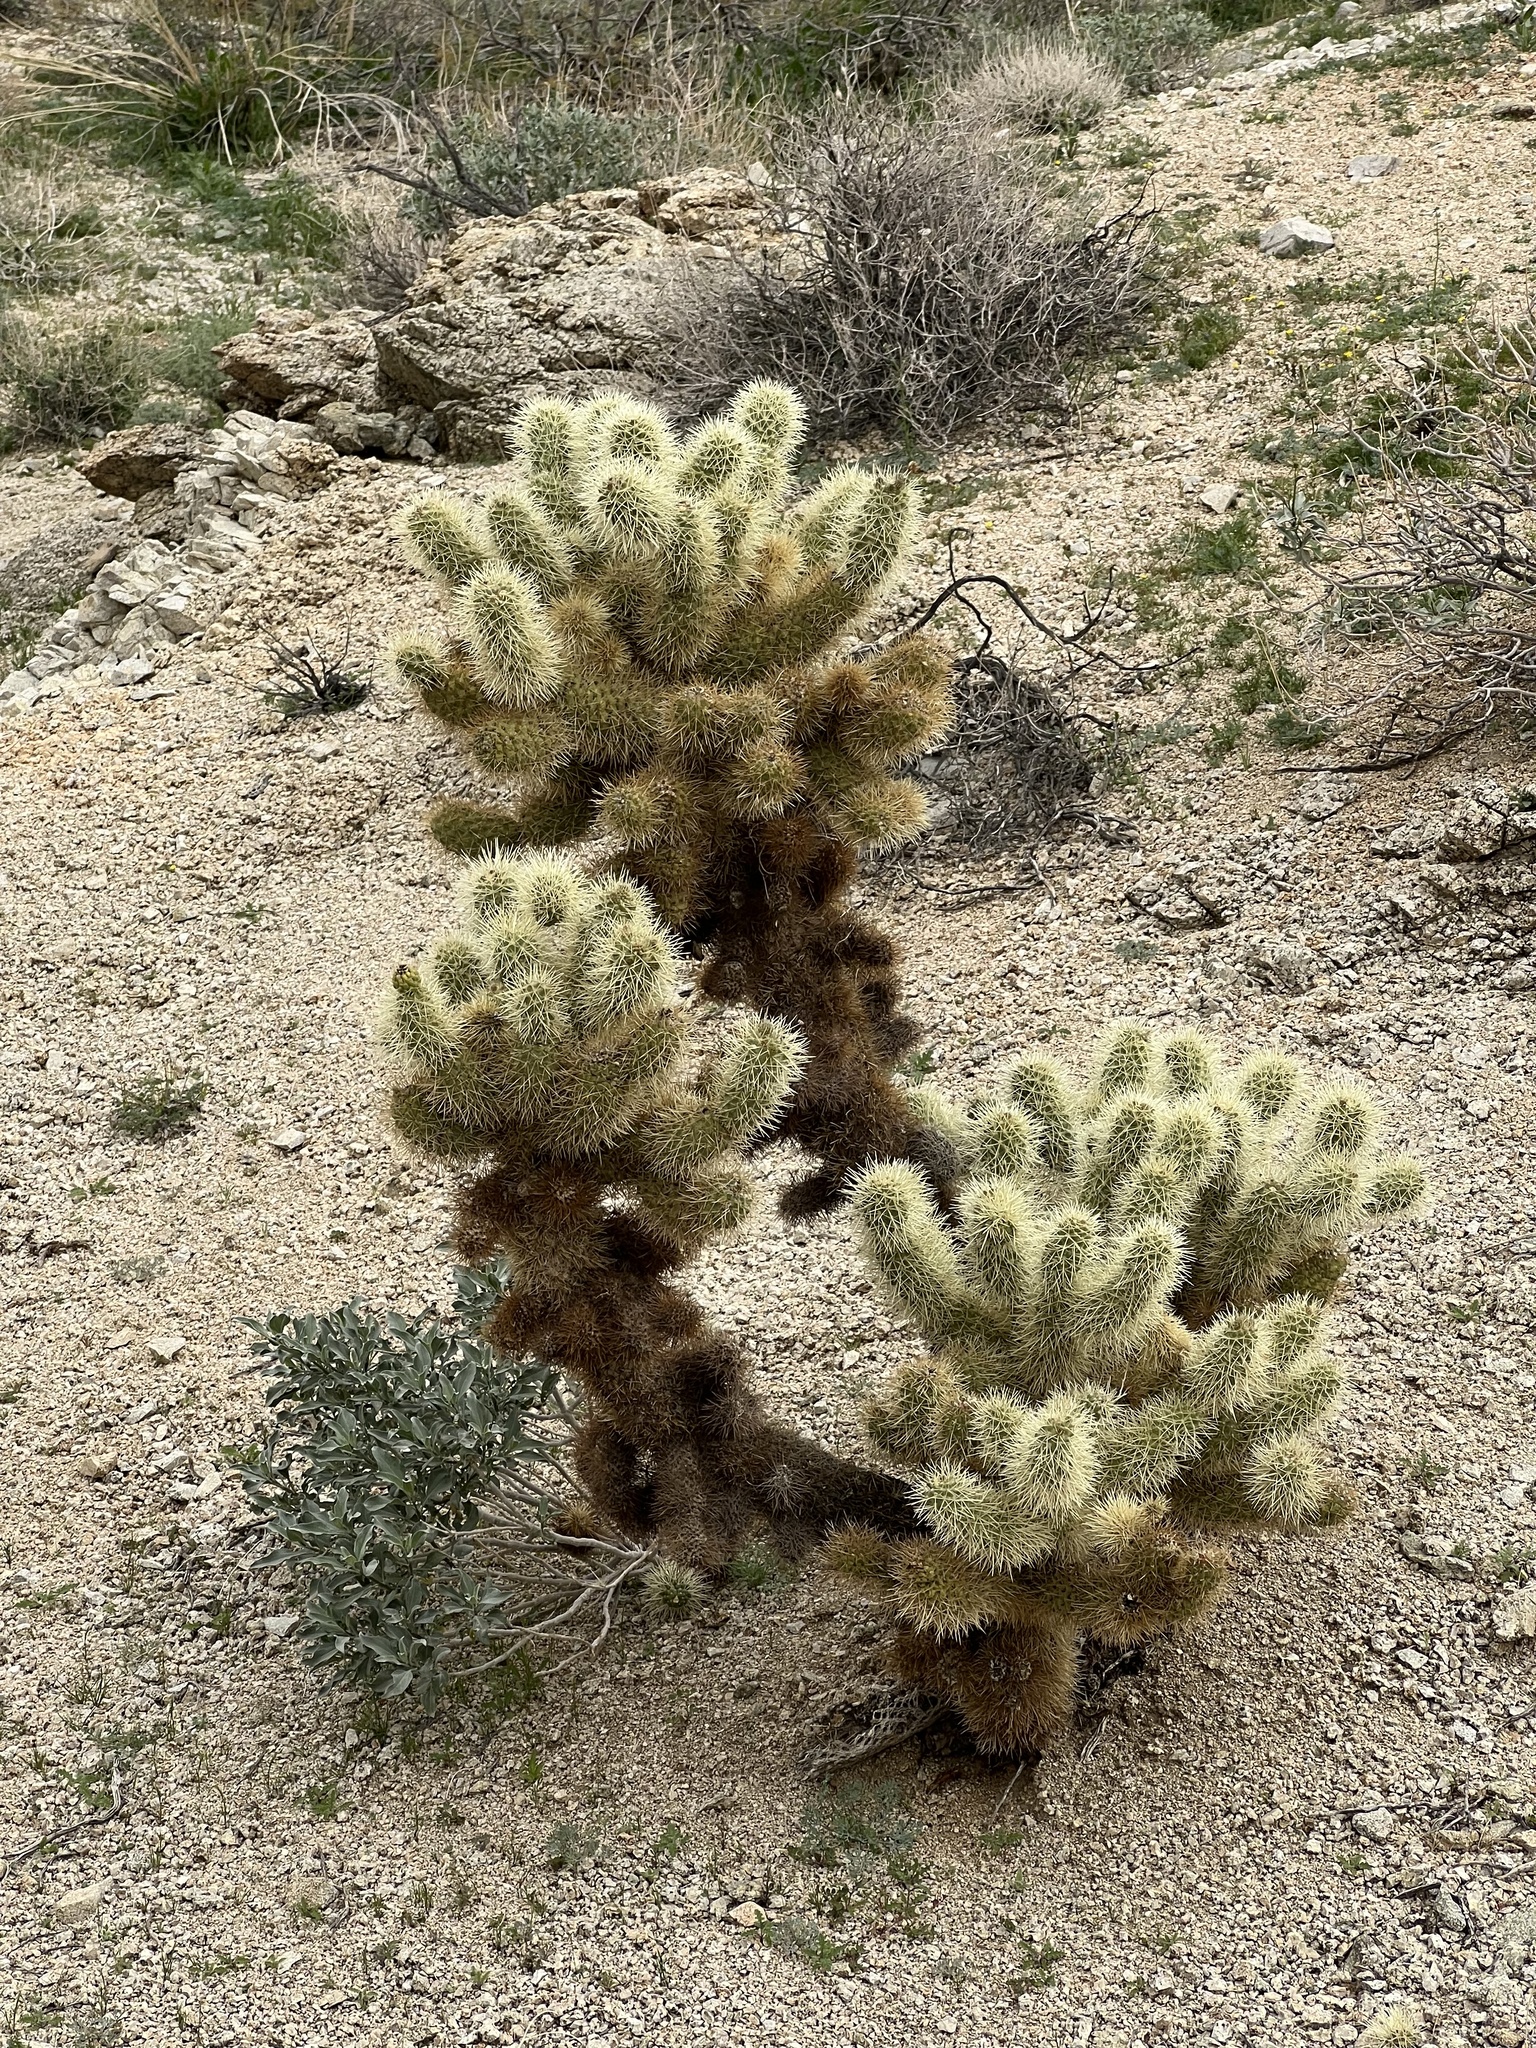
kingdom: Plantae
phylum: Tracheophyta
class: Magnoliopsida
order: Caryophyllales
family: Cactaceae
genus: Cylindropuntia
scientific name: Cylindropuntia fosbergii
